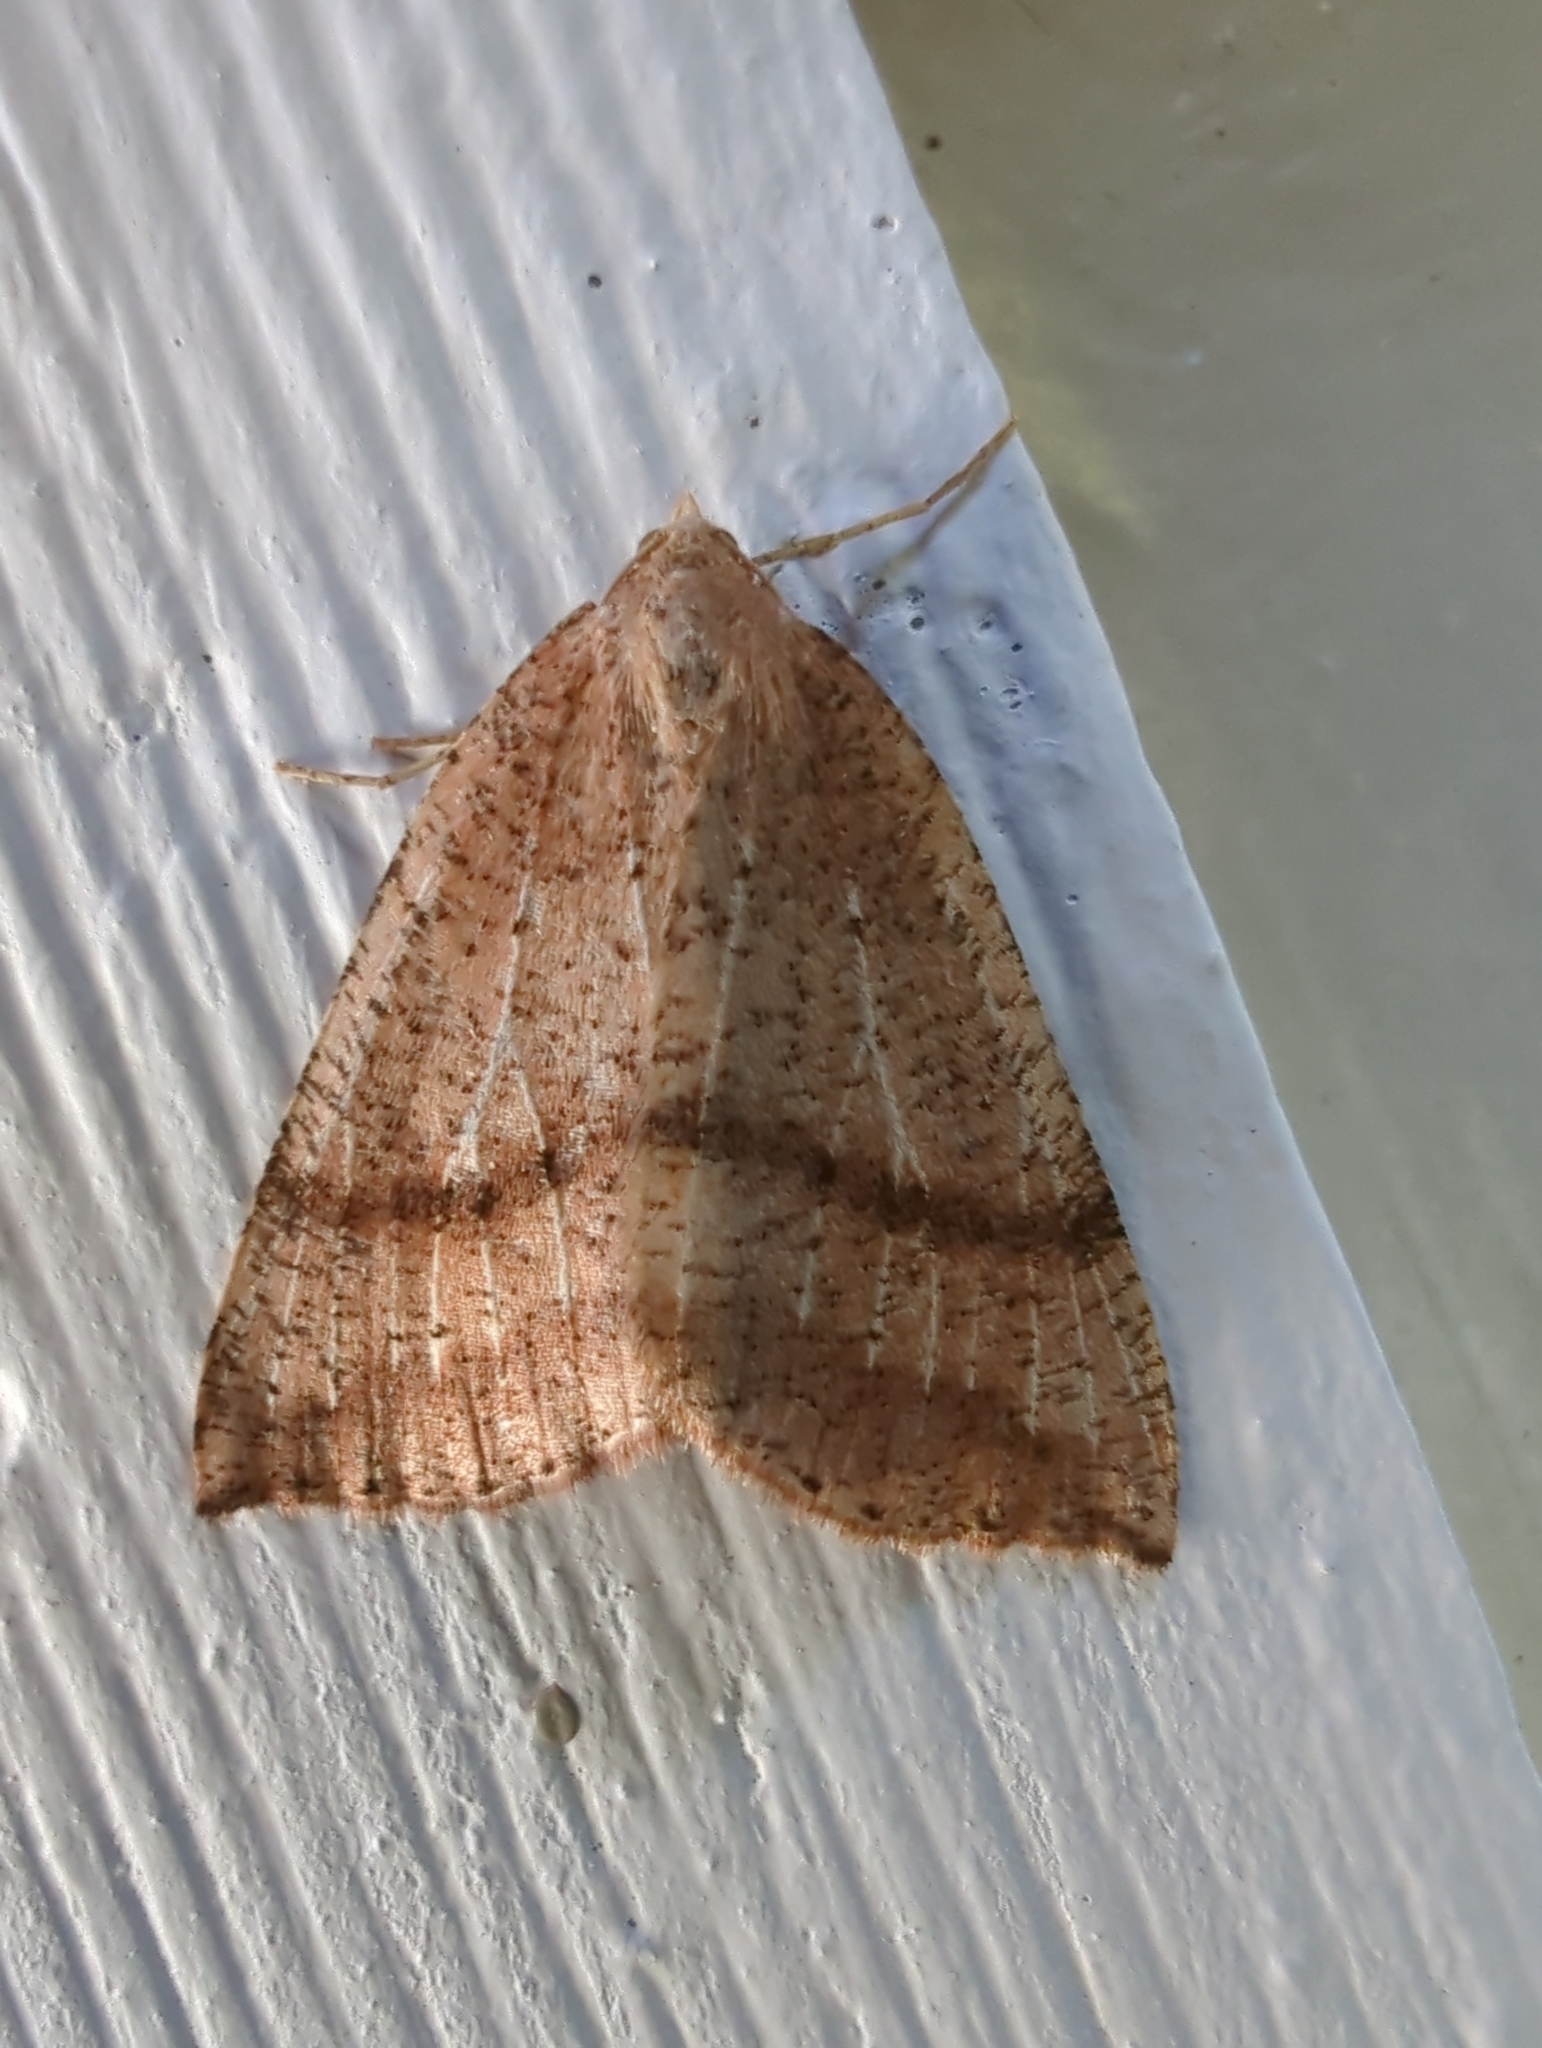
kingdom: Animalia
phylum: Arthropoda
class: Insecta
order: Lepidoptera
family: Geometridae
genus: Thallophaga
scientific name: Thallophaga hyperborea
